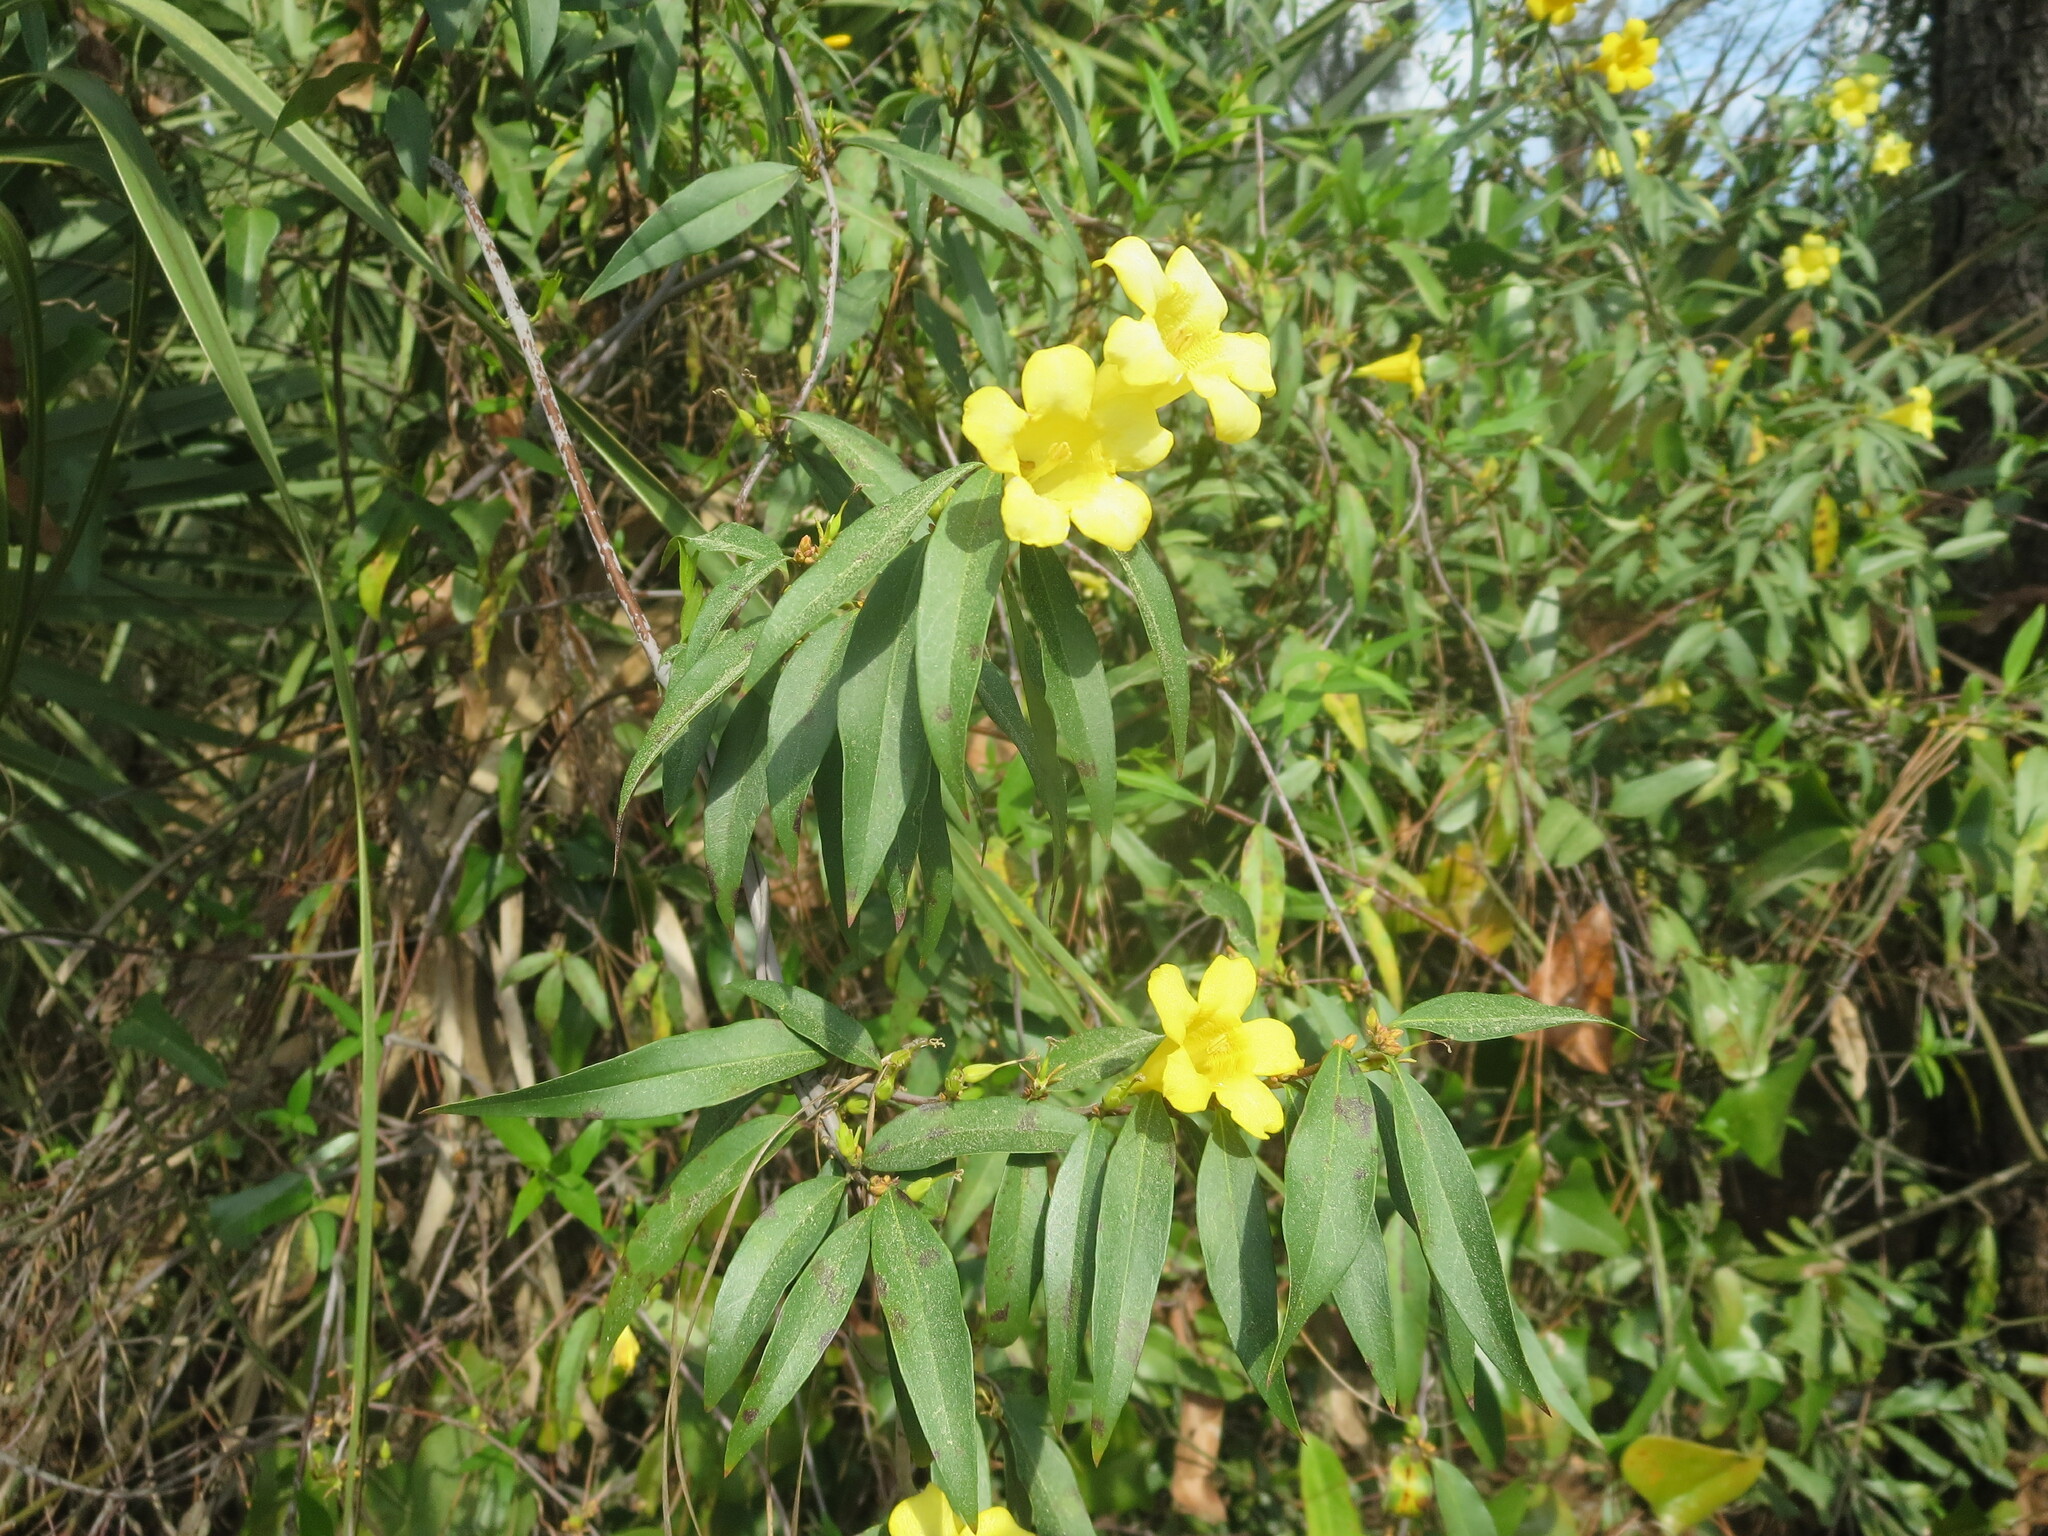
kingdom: Plantae
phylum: Tracheophyta
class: Magnoliopsida
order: Gentianales
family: Gelsemiaceae
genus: Gelsemium
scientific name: Gelsemium sempervirens
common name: Carolina-jasmine
